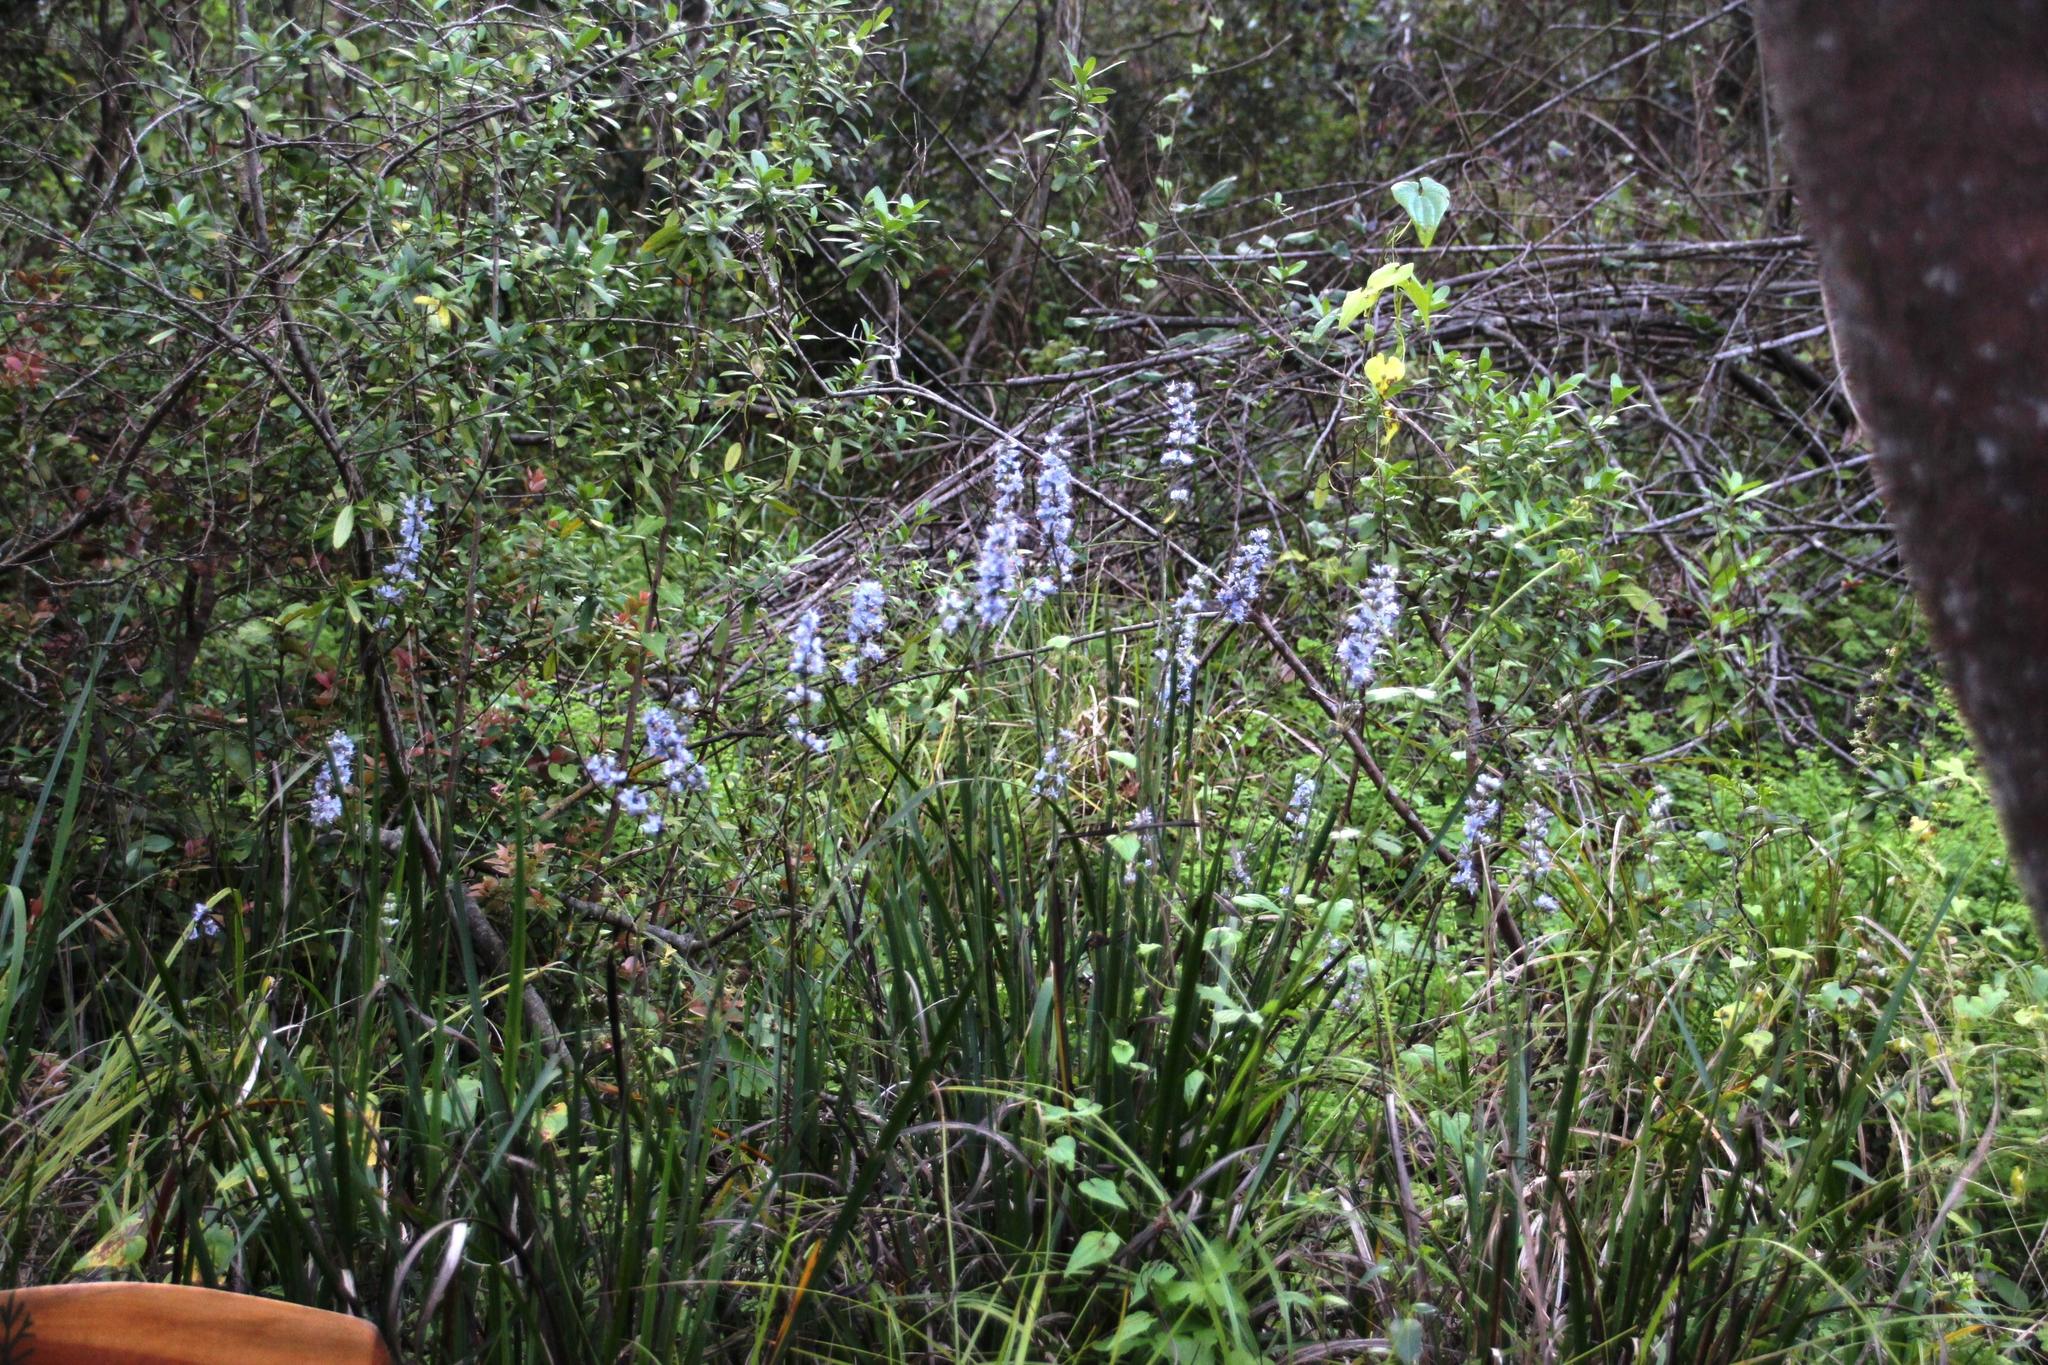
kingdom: Plantae
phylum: Tracheophyta
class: Liliopsida
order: Asparagales
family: Iridaceae
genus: Libertia
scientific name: Libertia sessiliflora
